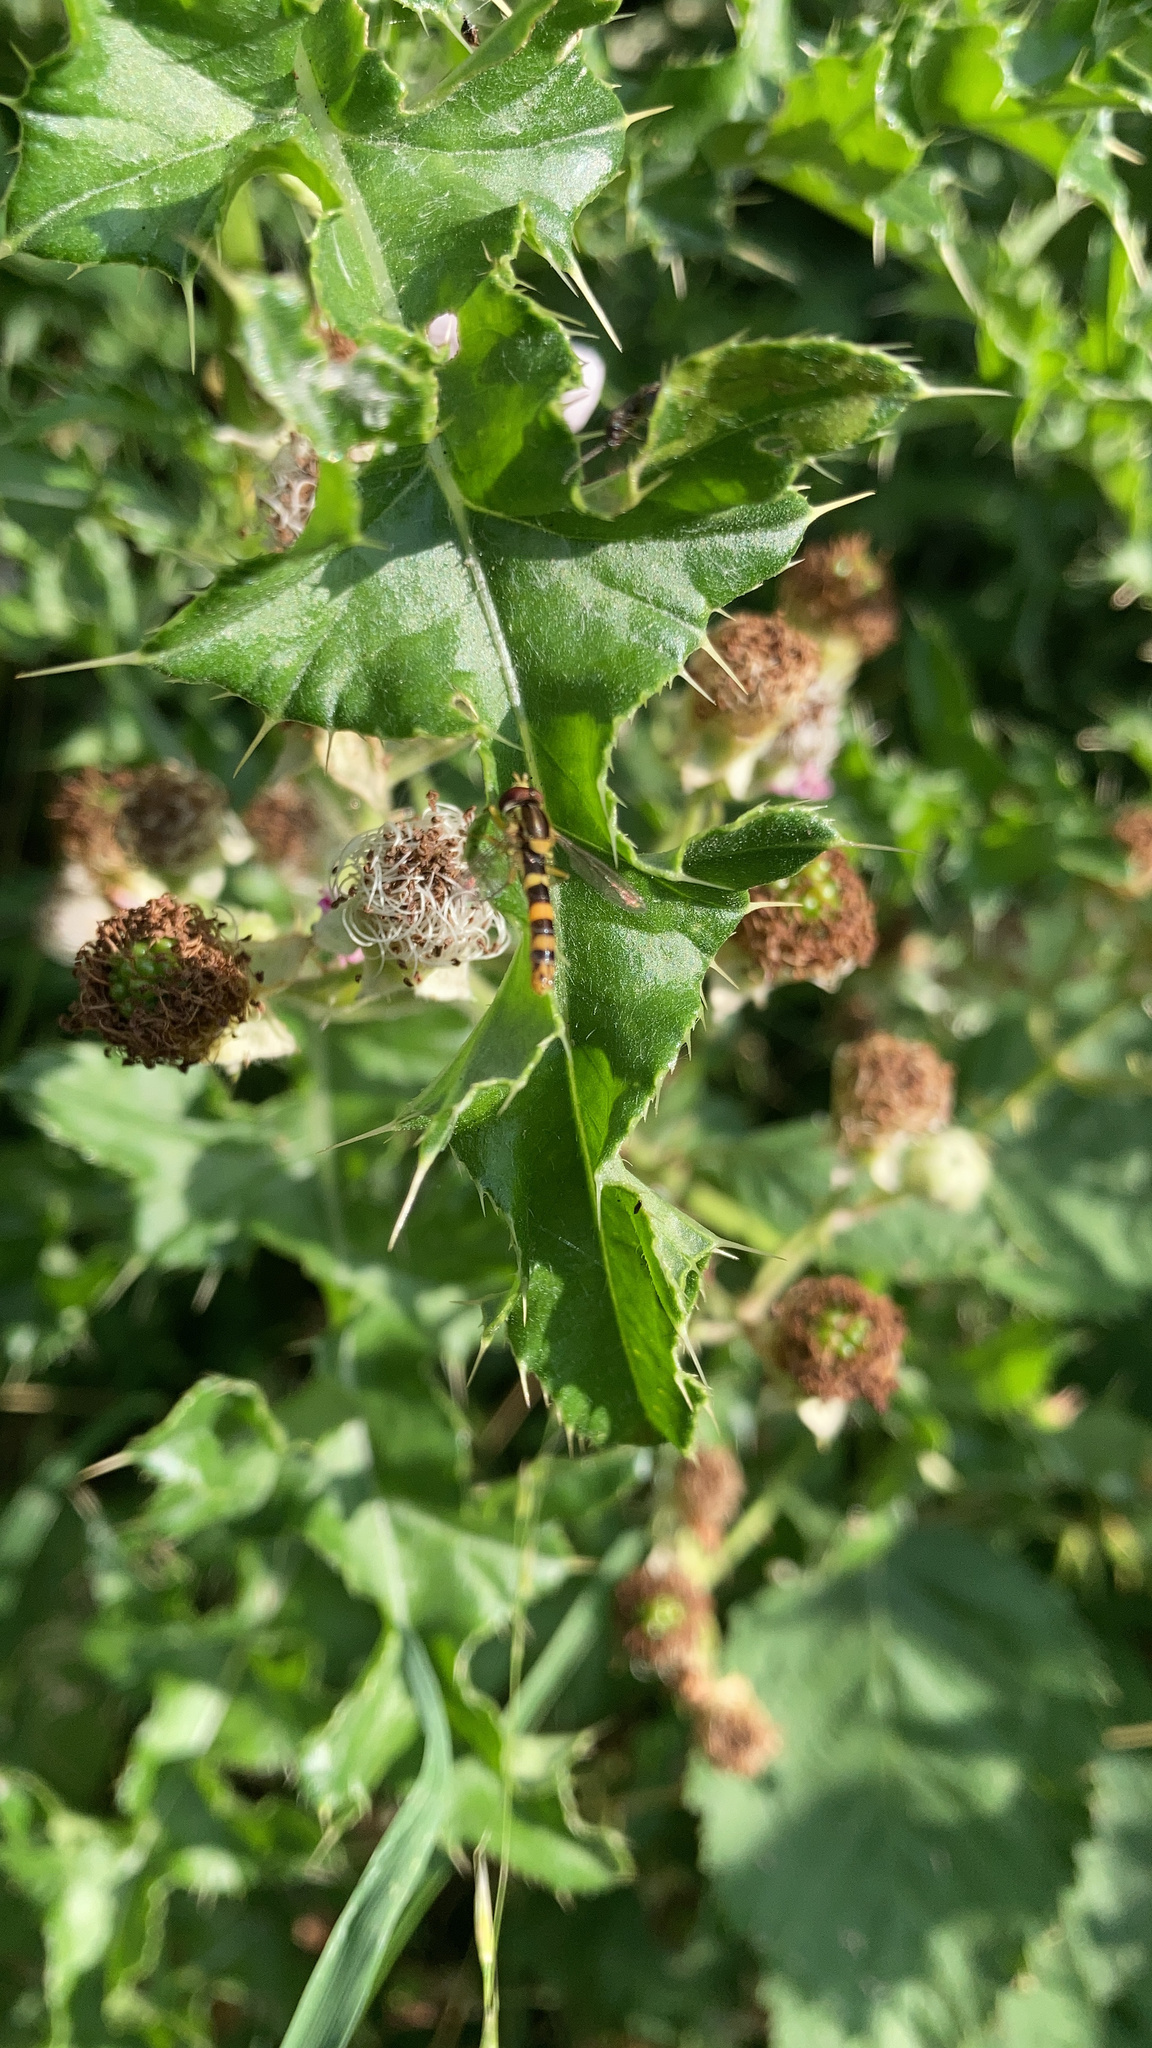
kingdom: Animalia
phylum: Arthropoda
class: Insecta
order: Diptera
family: Syrphidae
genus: Sphaerophoria
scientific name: Sphaerophoria scripta
